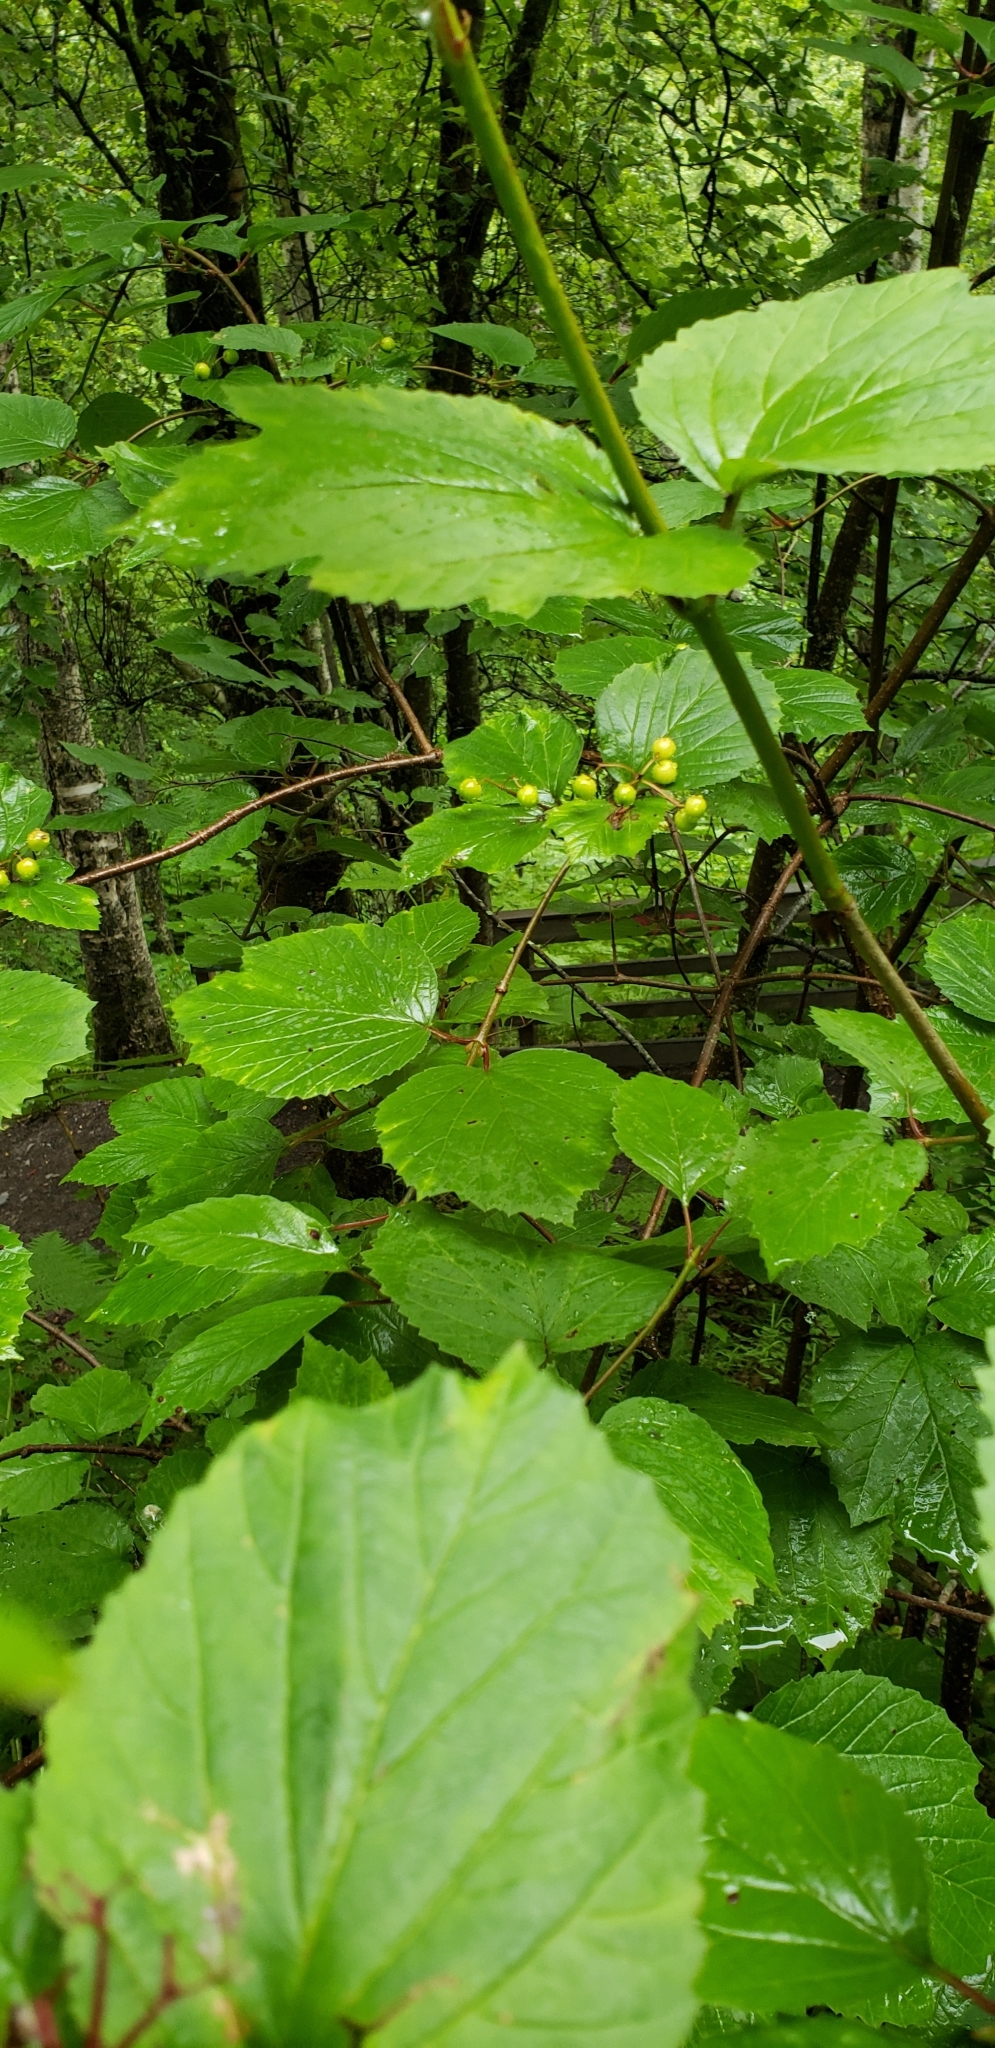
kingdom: Plantae
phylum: Tracheophyta
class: Magnoliopsida
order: Dipsacales
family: Viburnaceae
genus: Viburnum
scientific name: Viburnum edule
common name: Mooseberry
